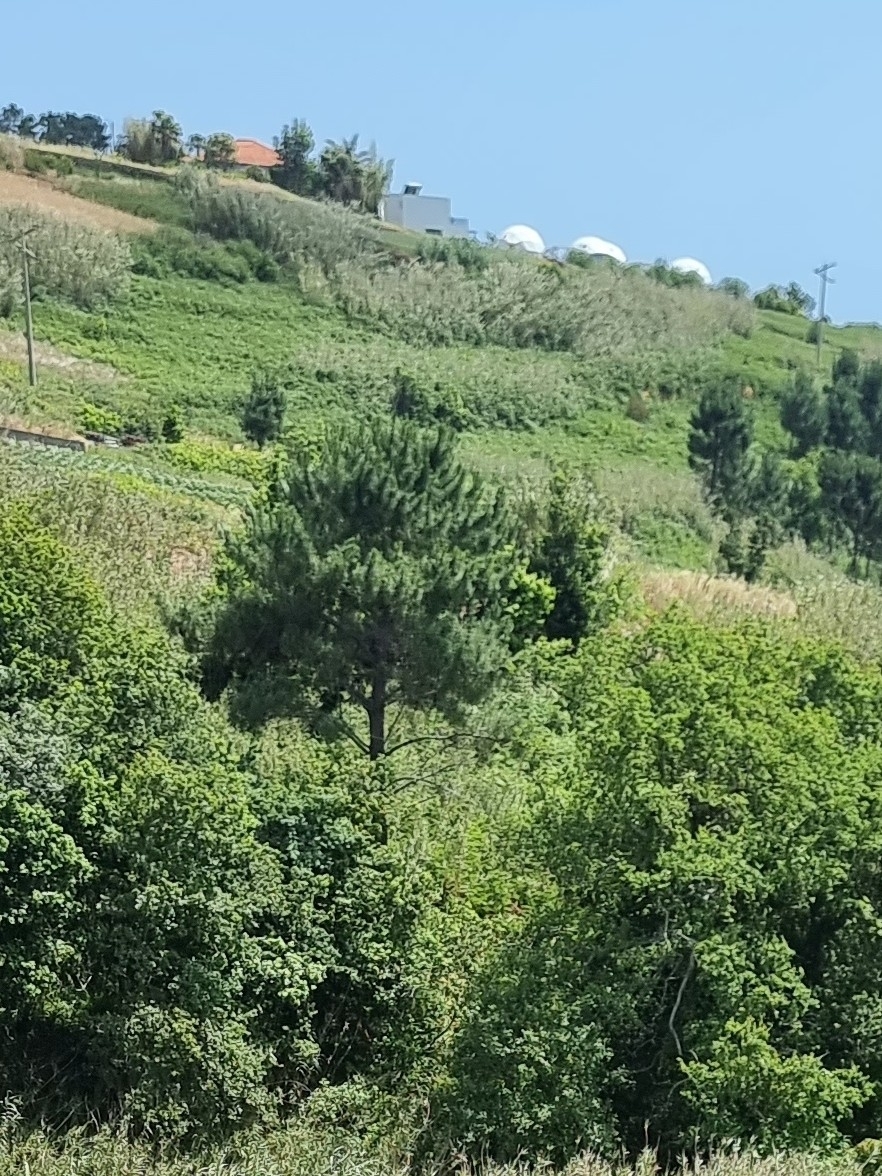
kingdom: Plantae
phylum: Tracheophyta
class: Pinopsida
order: Pinales
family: Pinaceae
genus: Pinus
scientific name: Pinus pinaster
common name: Maritime pine
